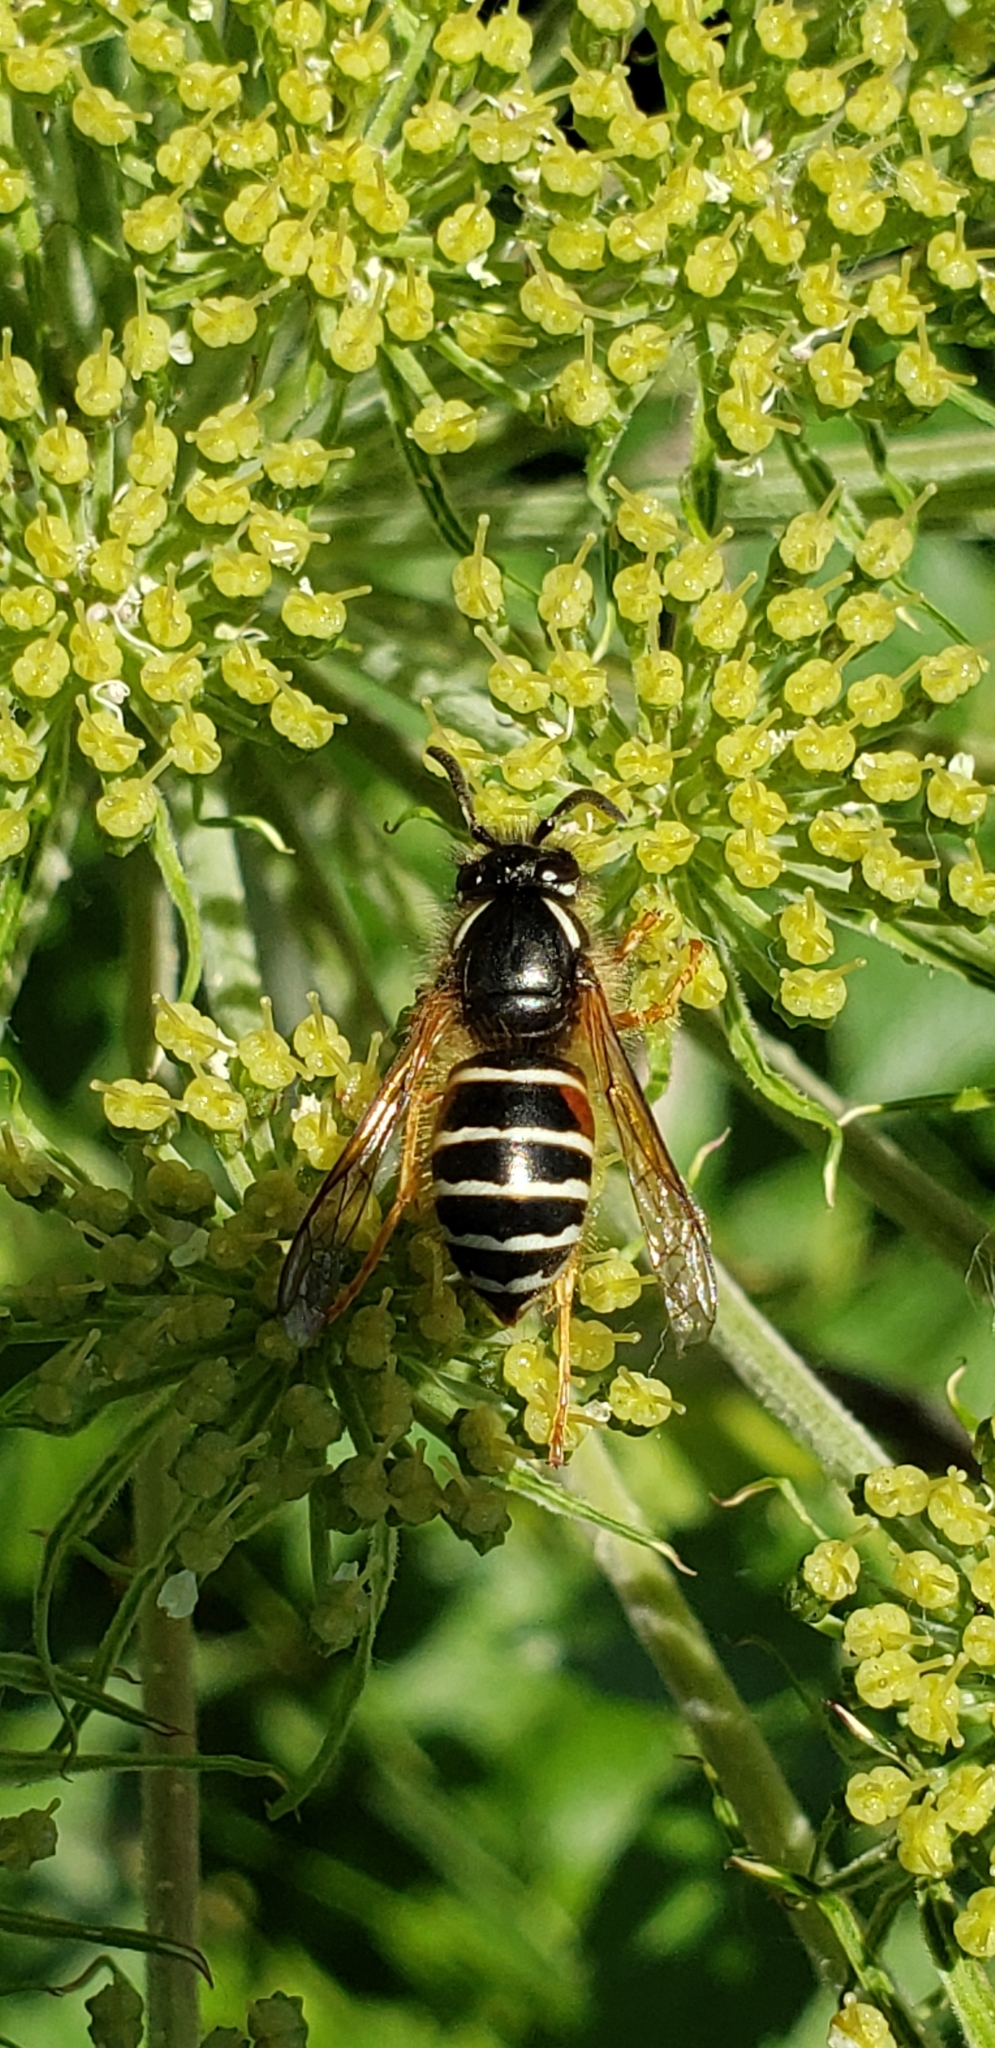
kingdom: Animalia
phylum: Arthropoda
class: Insecta
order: Hymenoptera
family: Vespidae
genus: Dolichovespula
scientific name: Dolichovespula norwegica
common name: Norwegian wasp
